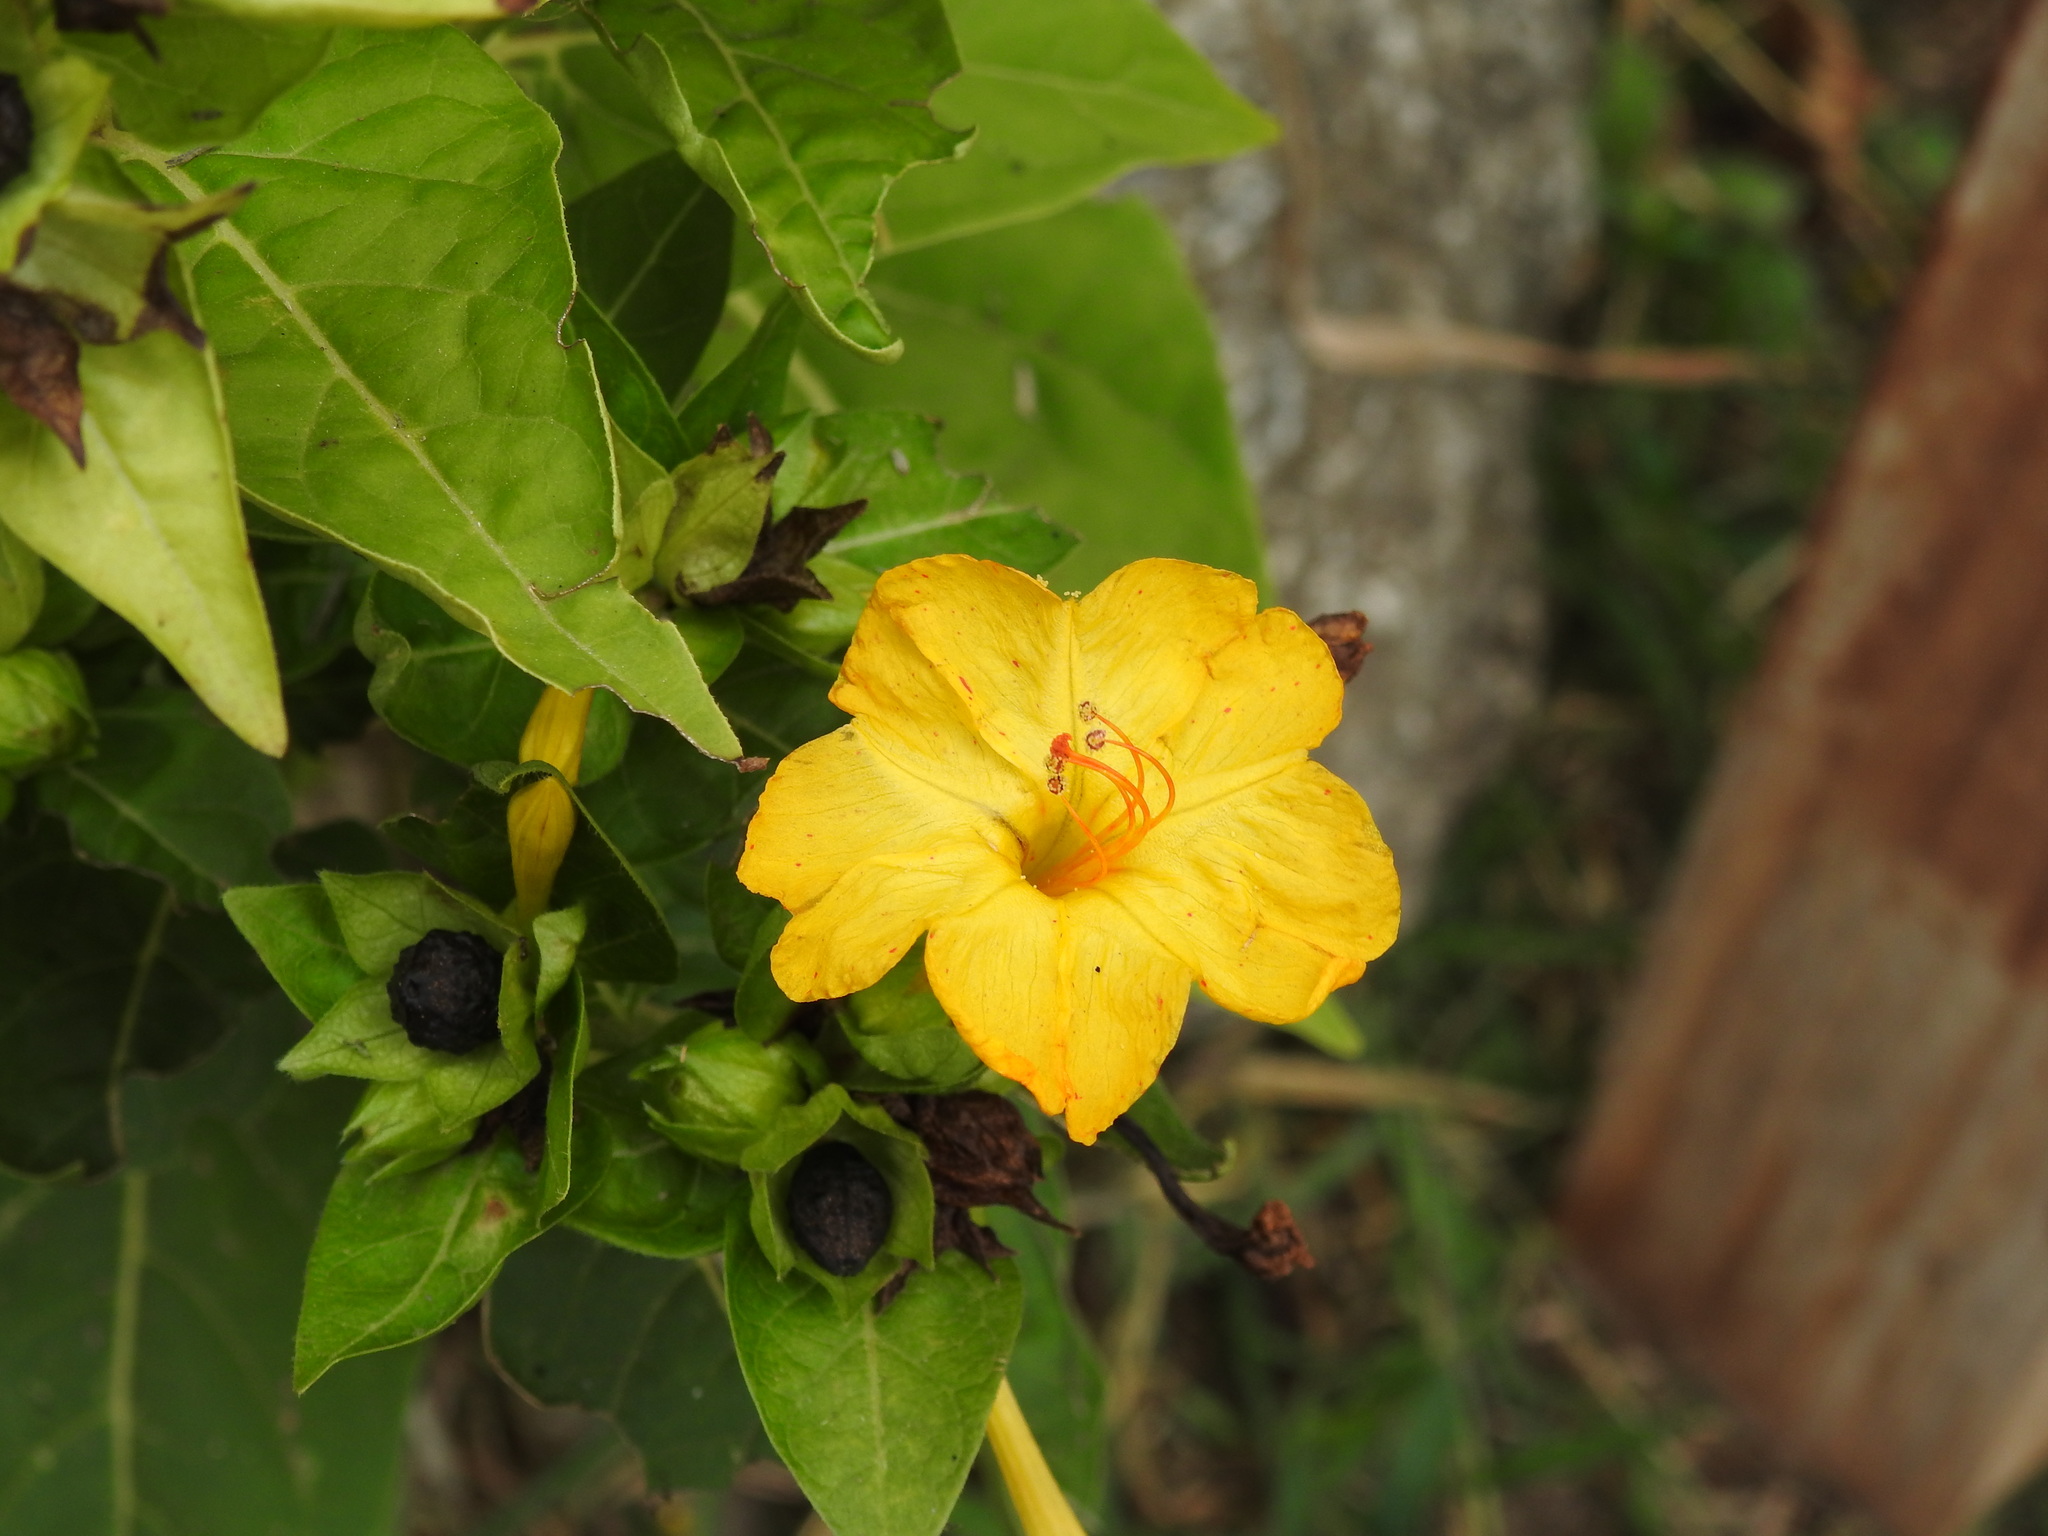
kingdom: Plantae
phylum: Tracheophyta
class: Magnoliopsida
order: Caryophyllales
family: Nyctaginaceae
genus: Mirabilis
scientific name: Mirabilis jalapa
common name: Marvel-of-peru
